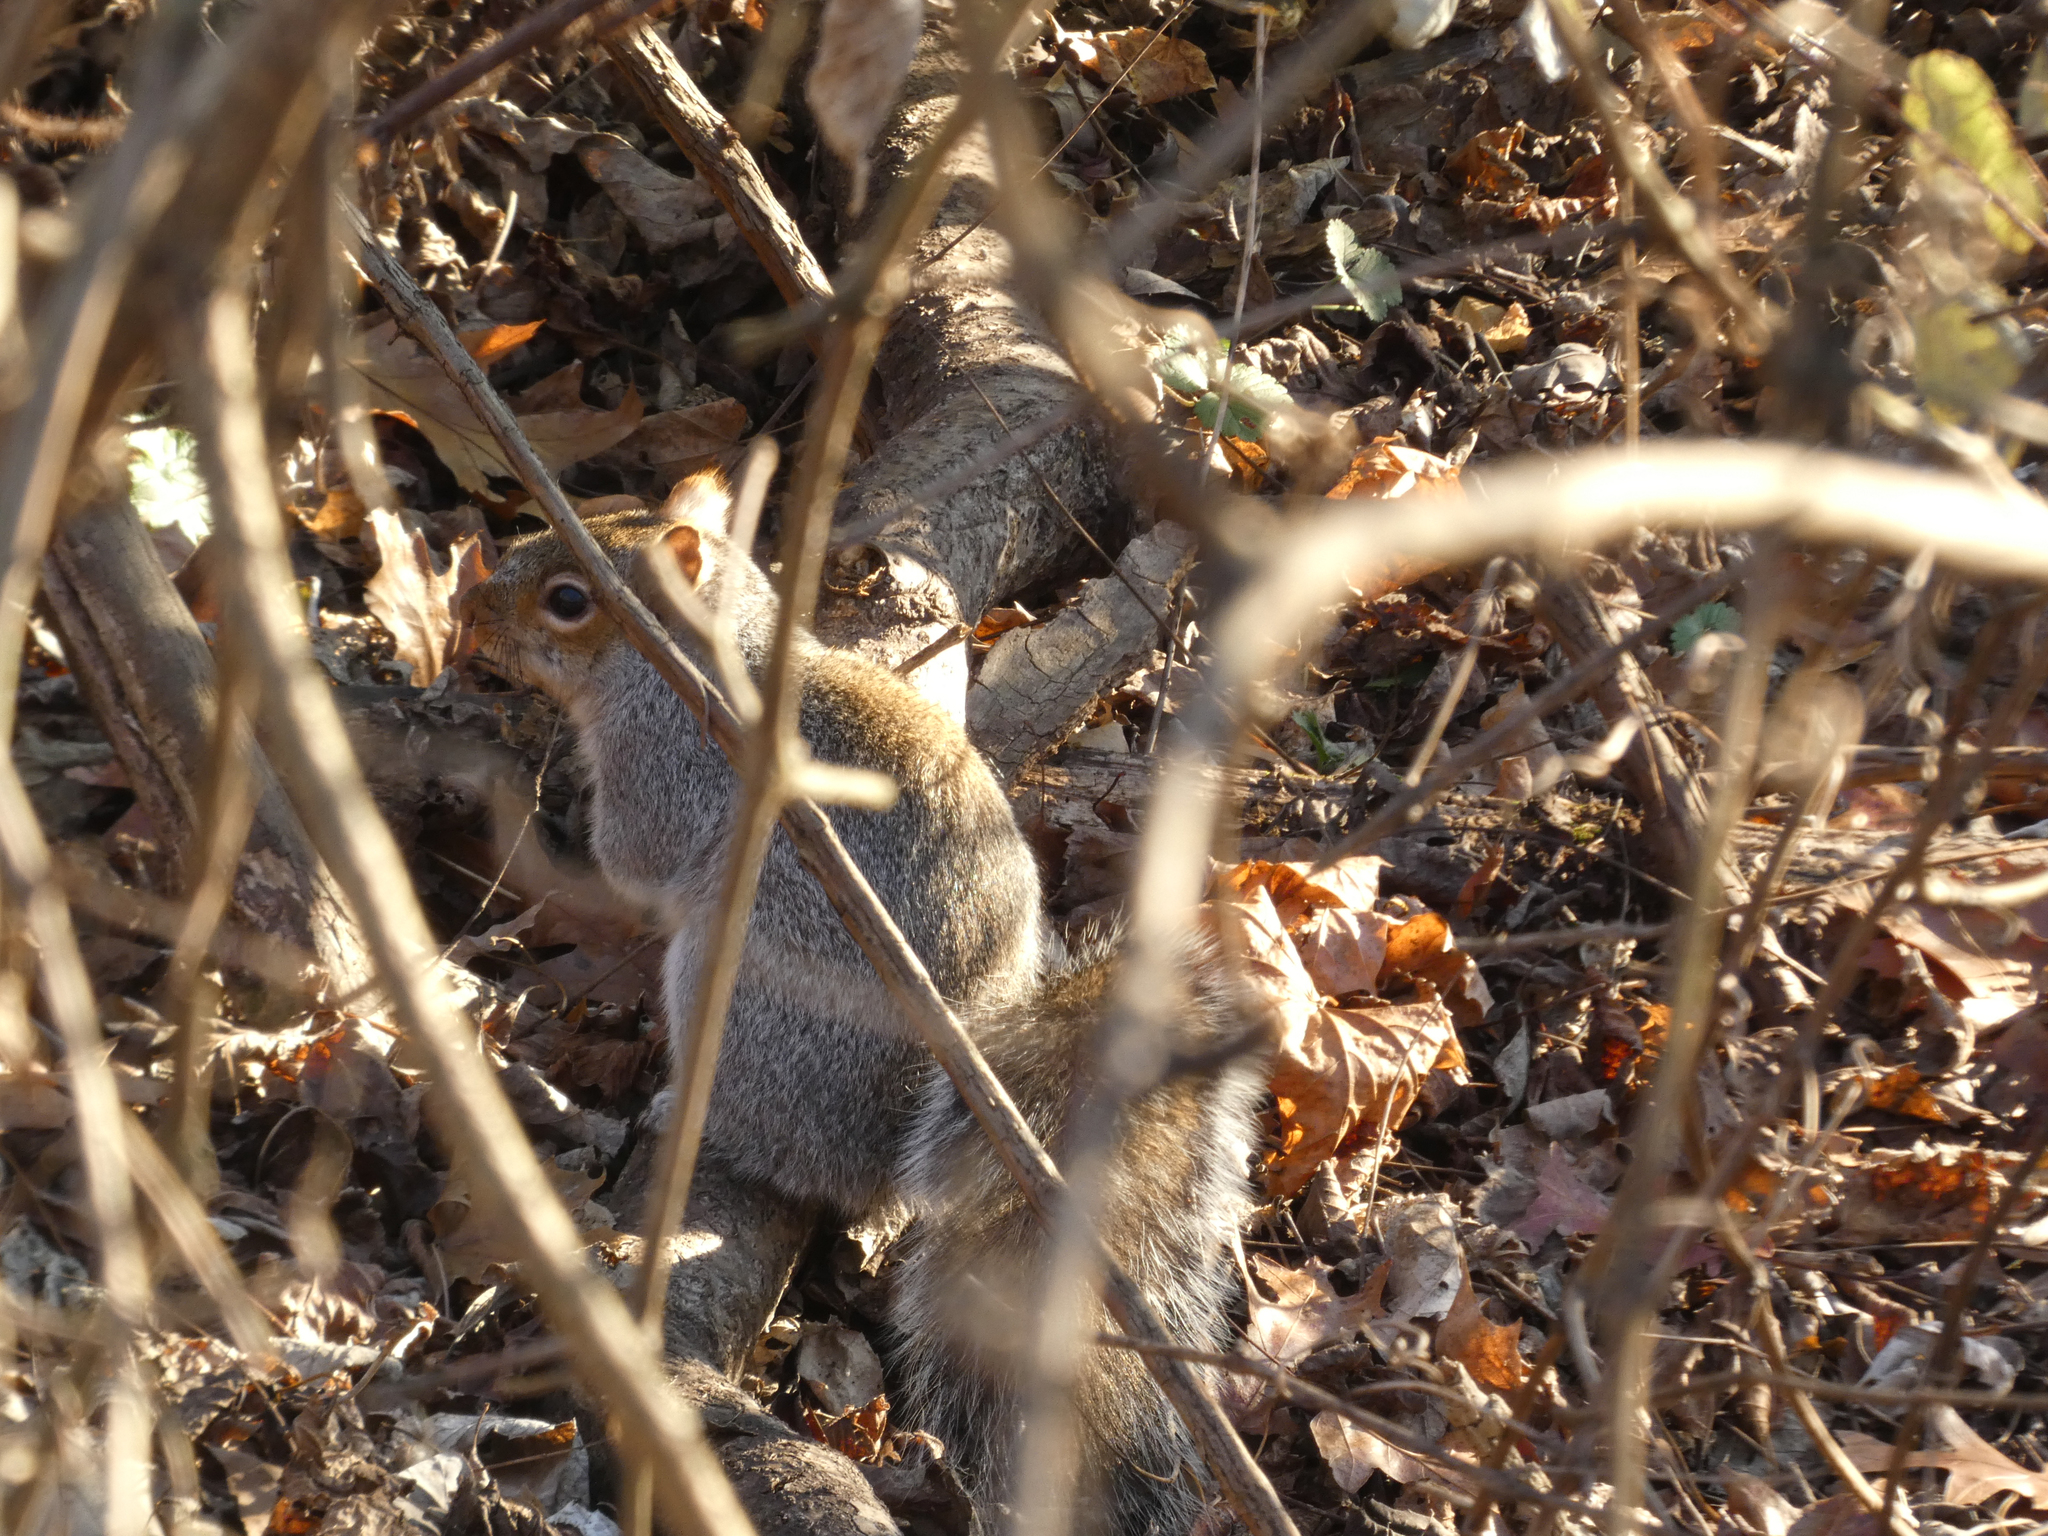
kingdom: Animalia
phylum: Chordata
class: Mammalia
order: Rodentia
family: Sciuridae
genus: Sciurus
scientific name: Sciurus carolinensis
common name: Eastern gray squirrel
